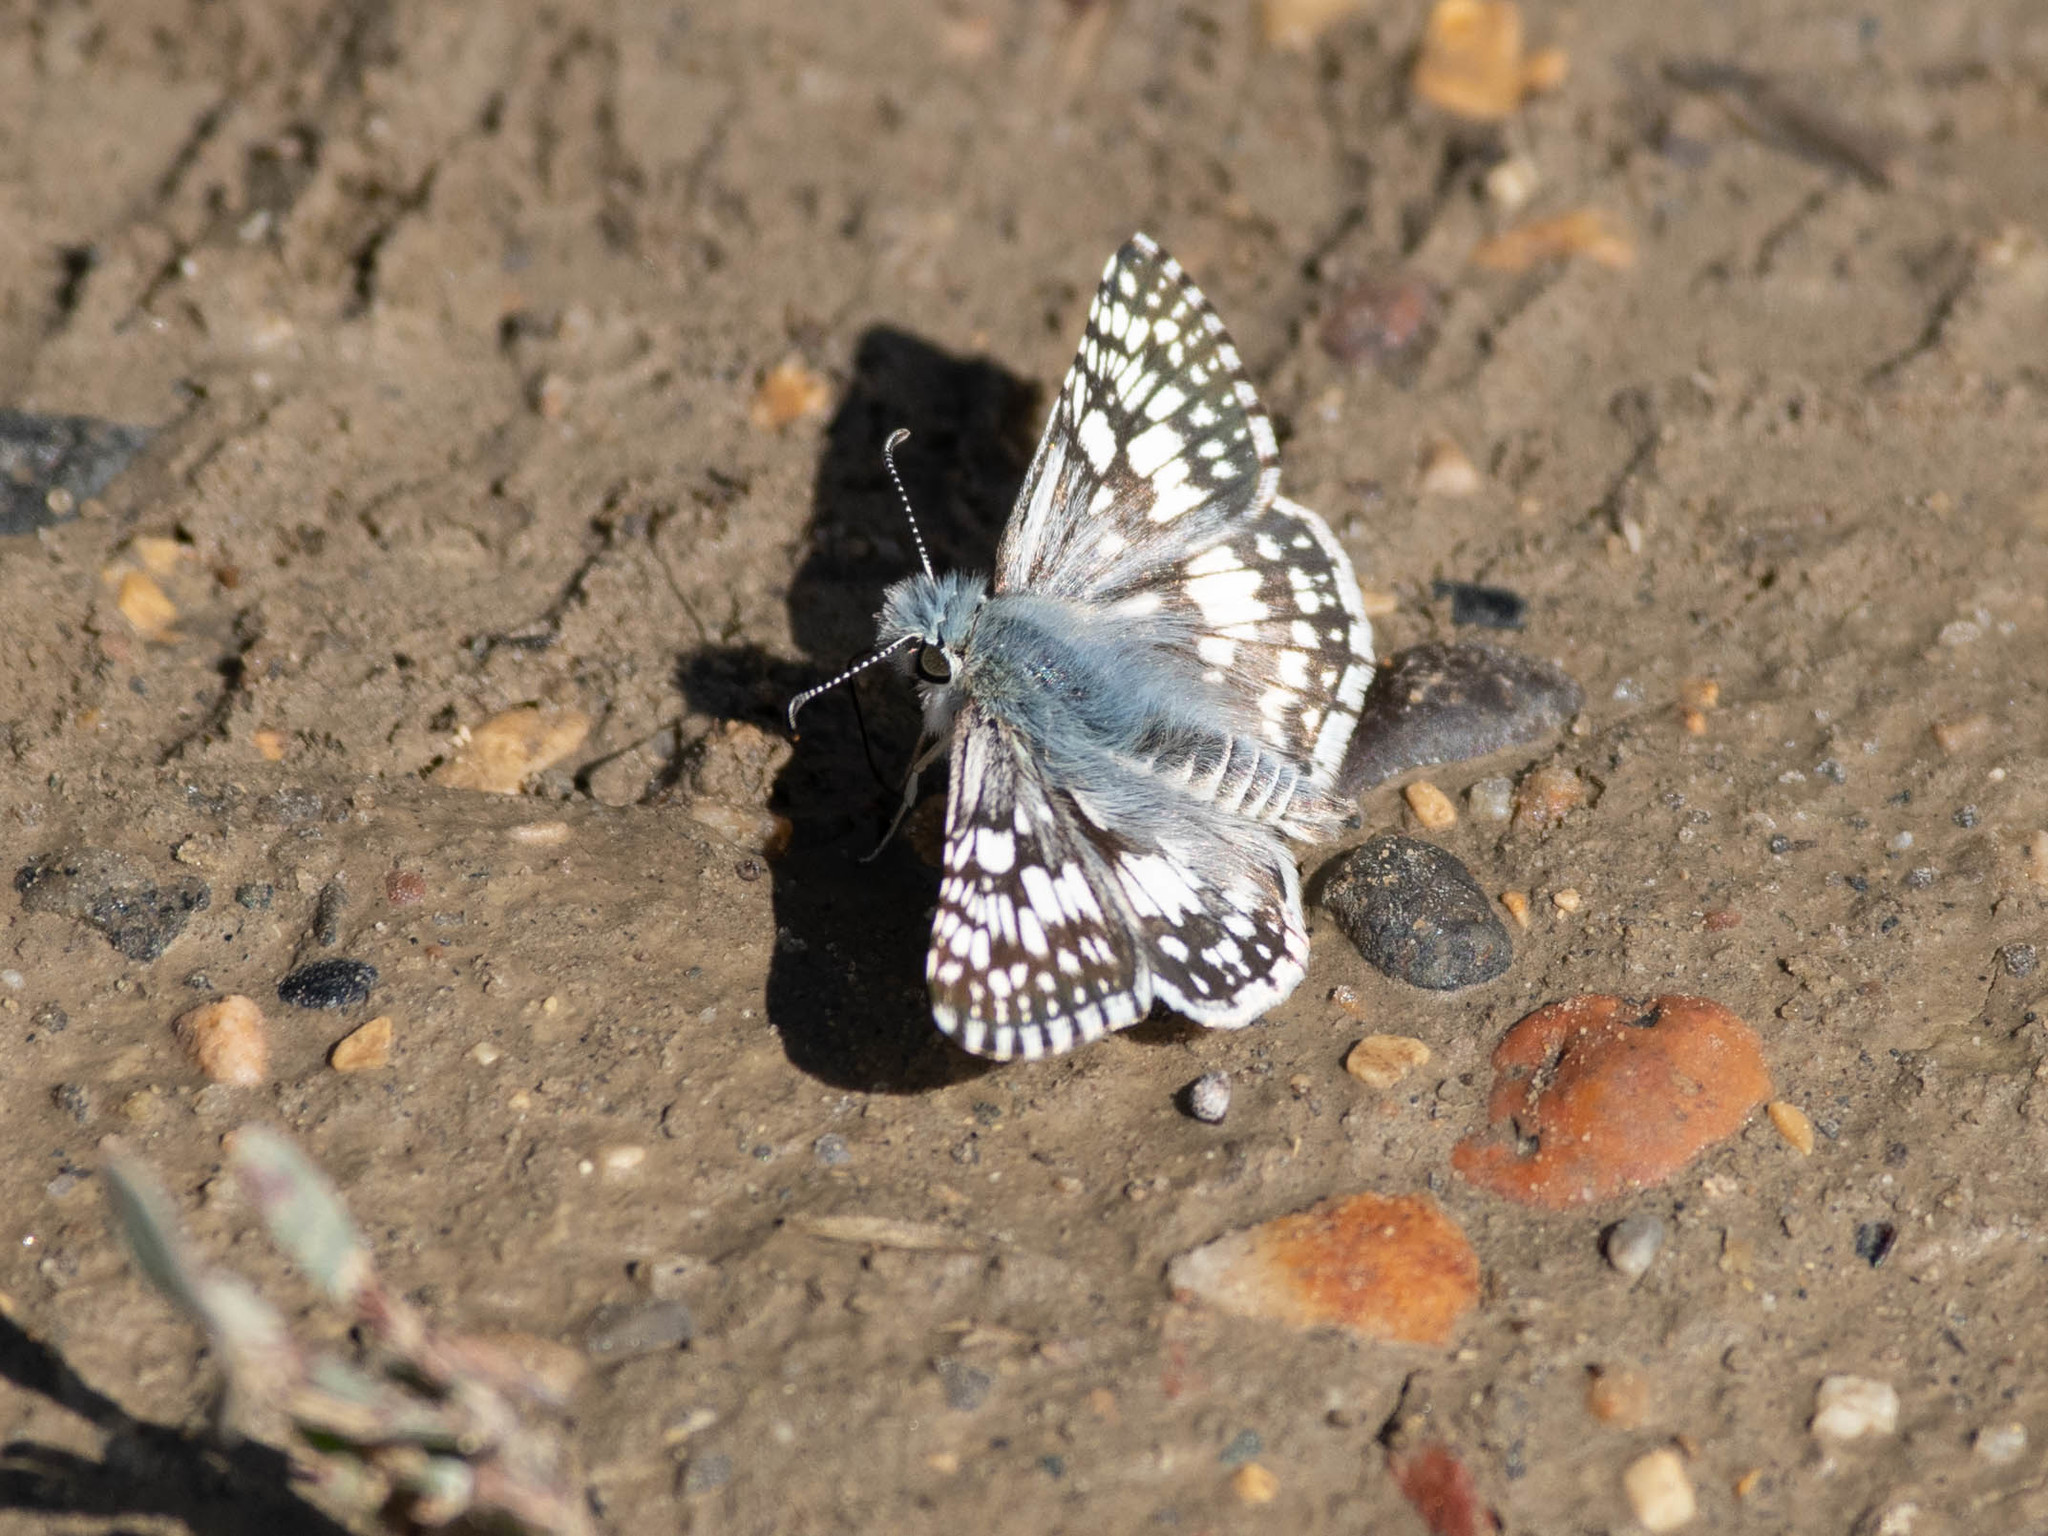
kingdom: Animalia
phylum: Arthropoda
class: Insecta
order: Lepidoptera
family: Hesperiidae
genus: Burnsius
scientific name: Burnsius communis
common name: Common checkered-skipper
